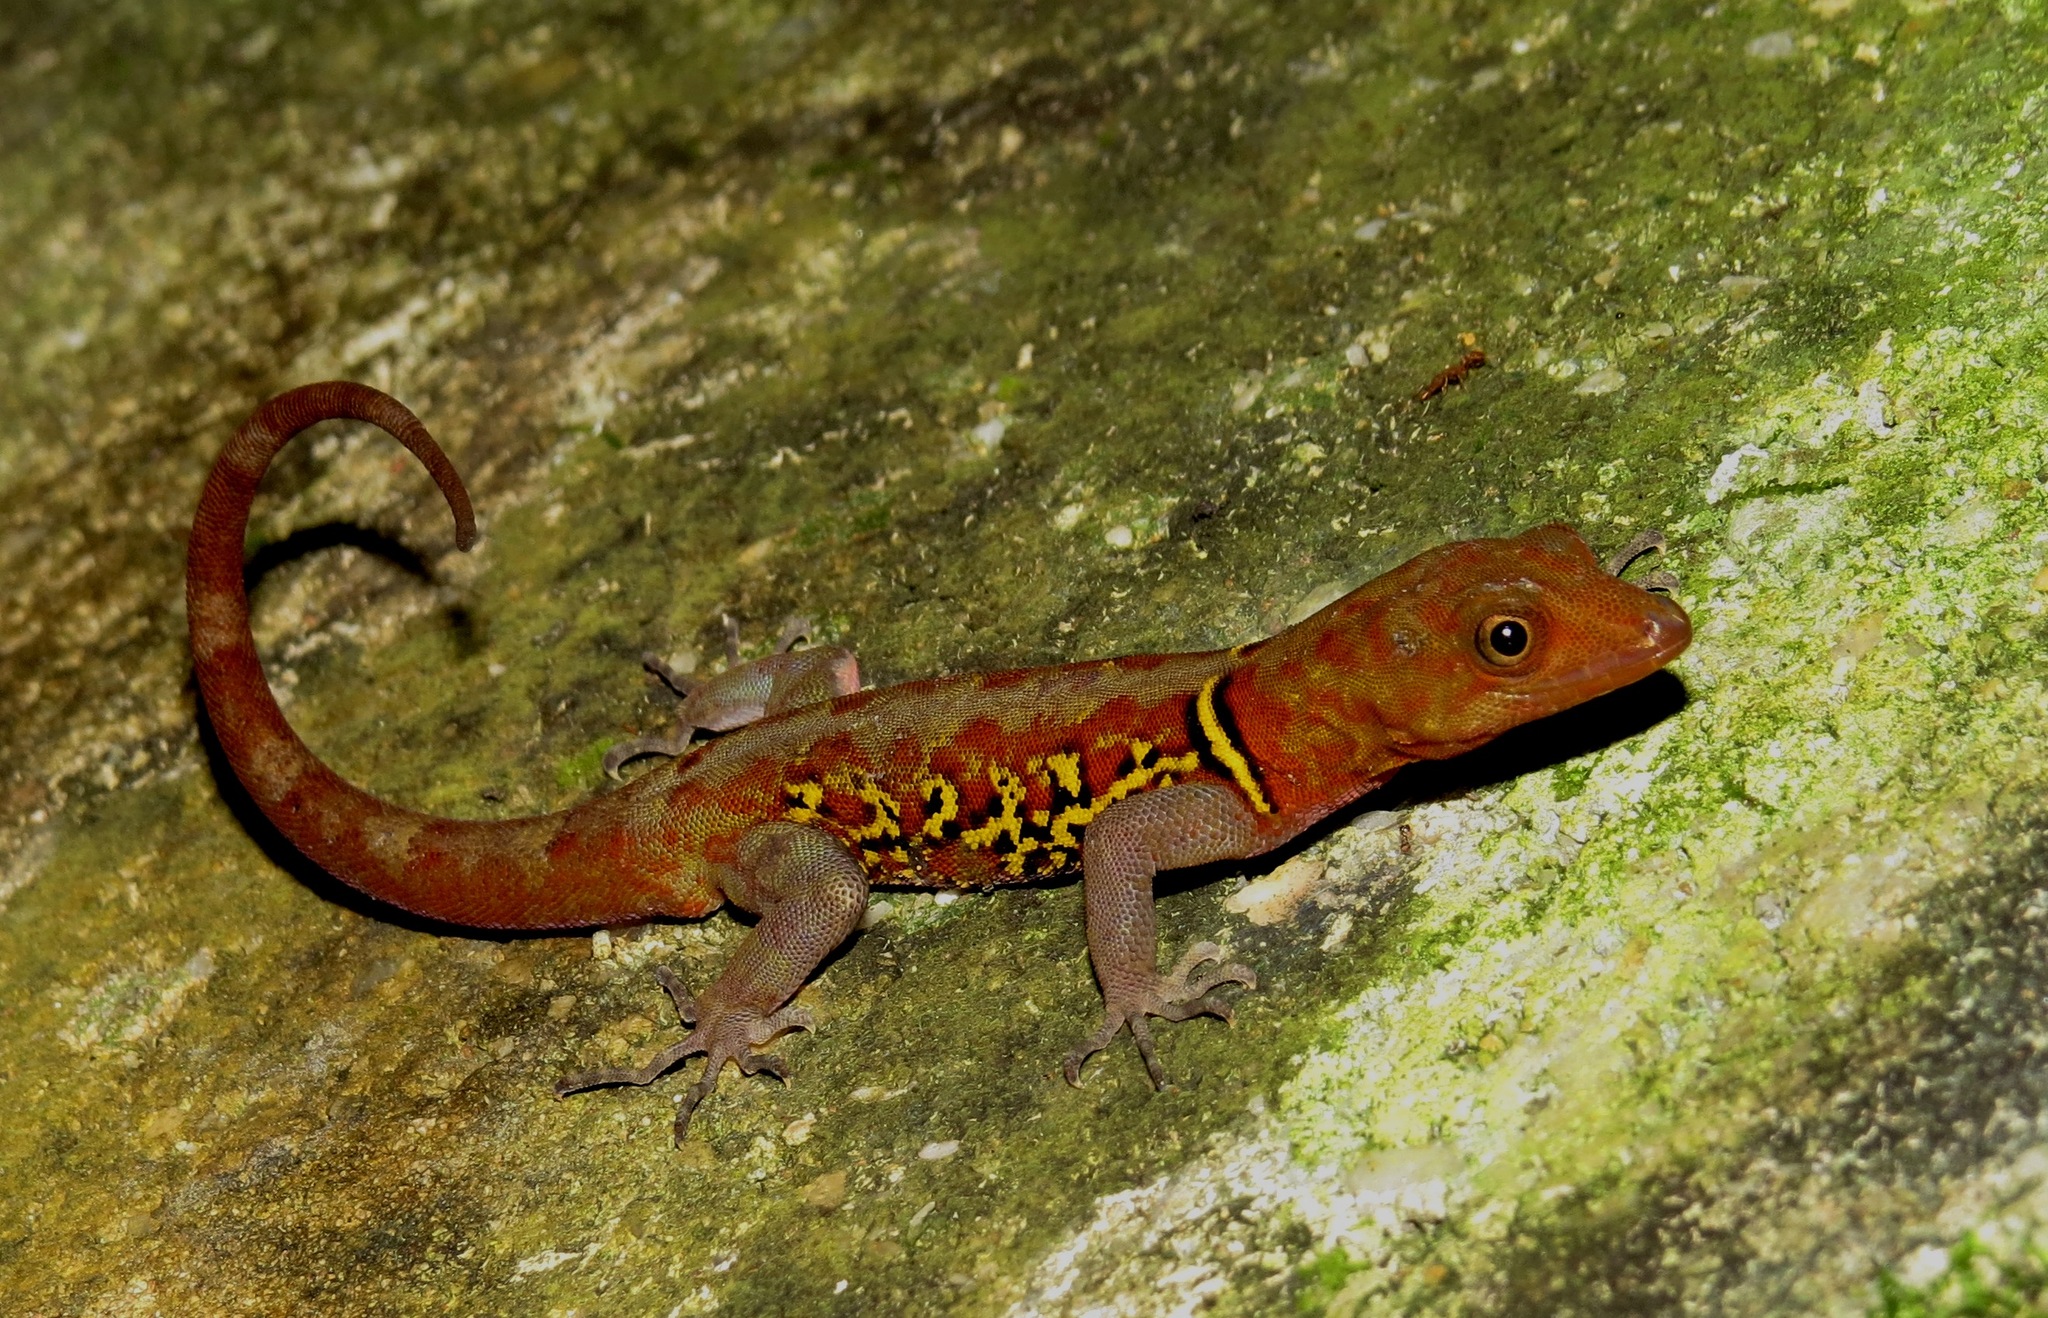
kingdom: Animalia
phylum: Chordata
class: Squamata
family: Sphaerodactylidae
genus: Gonatodes
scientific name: Gonatodes ceciliae
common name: Brilliant south american gecko
